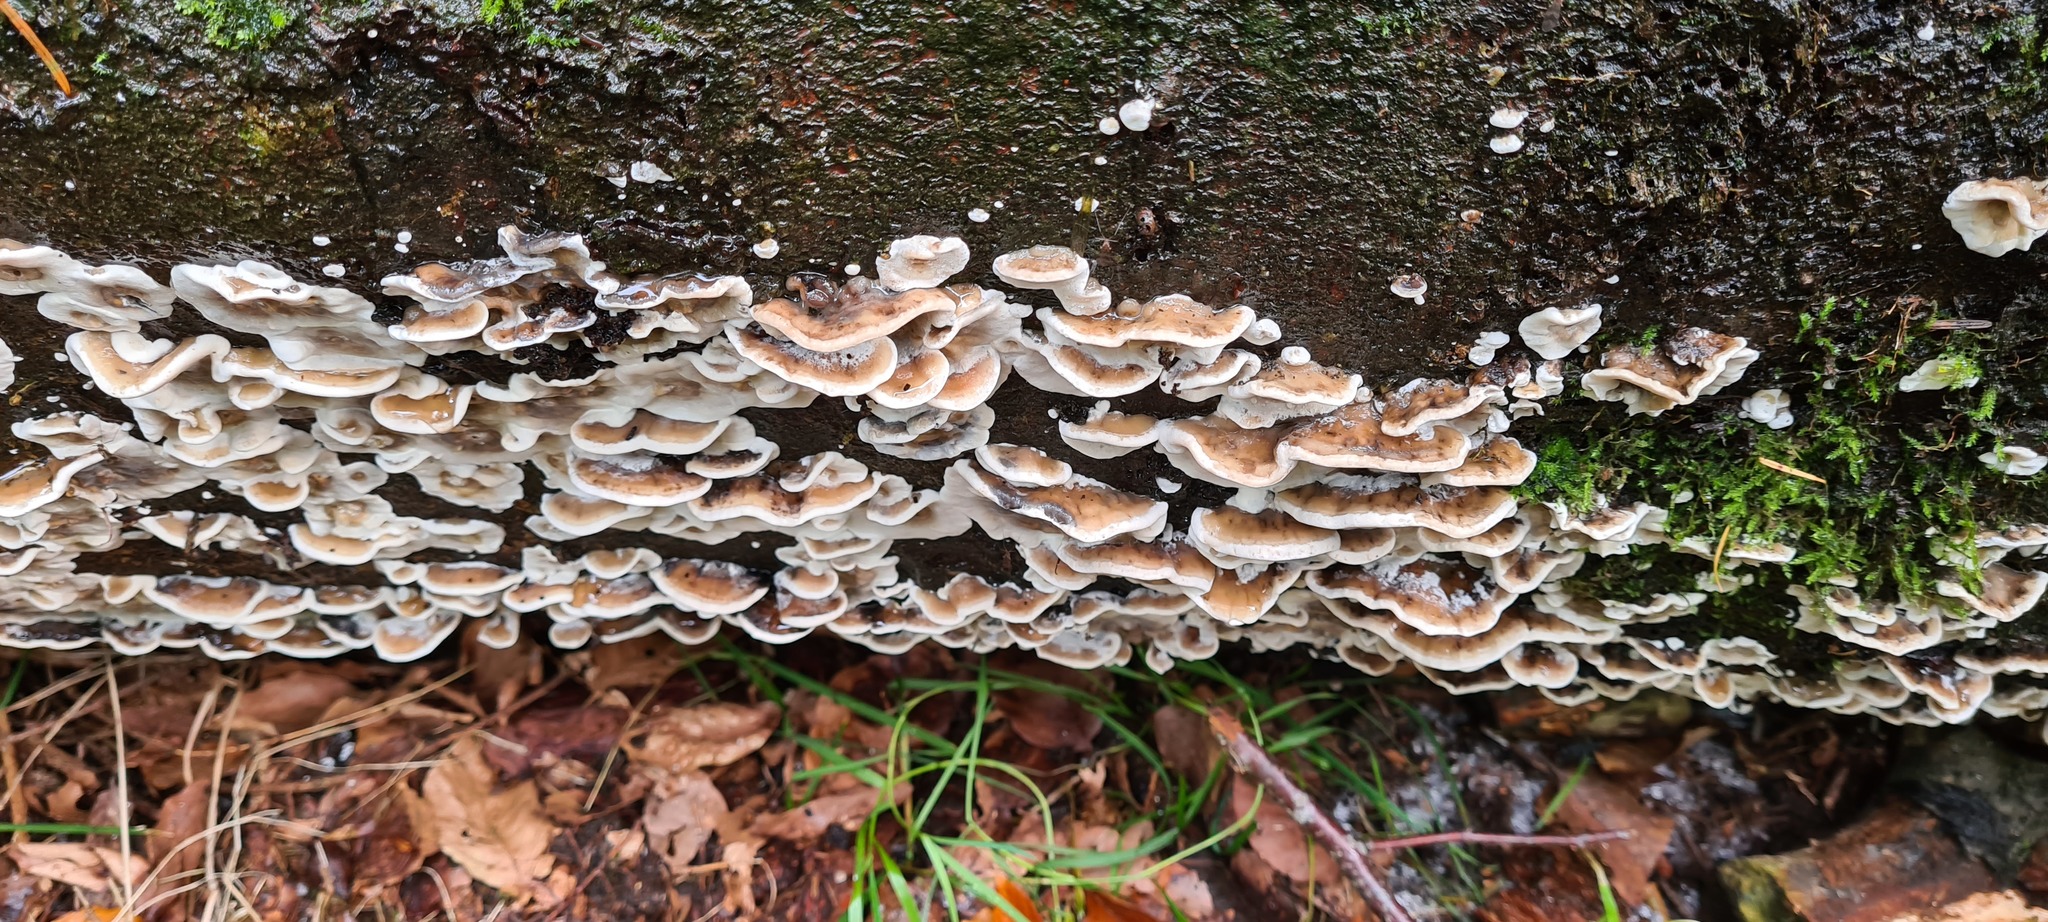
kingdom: Fungi
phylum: Basidiomycota
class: Agaricomycetes
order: Polyporales
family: Phanerochaetaceae
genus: Bjerkandera
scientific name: Bjerkandera fumosa
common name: Big smoky bracket
